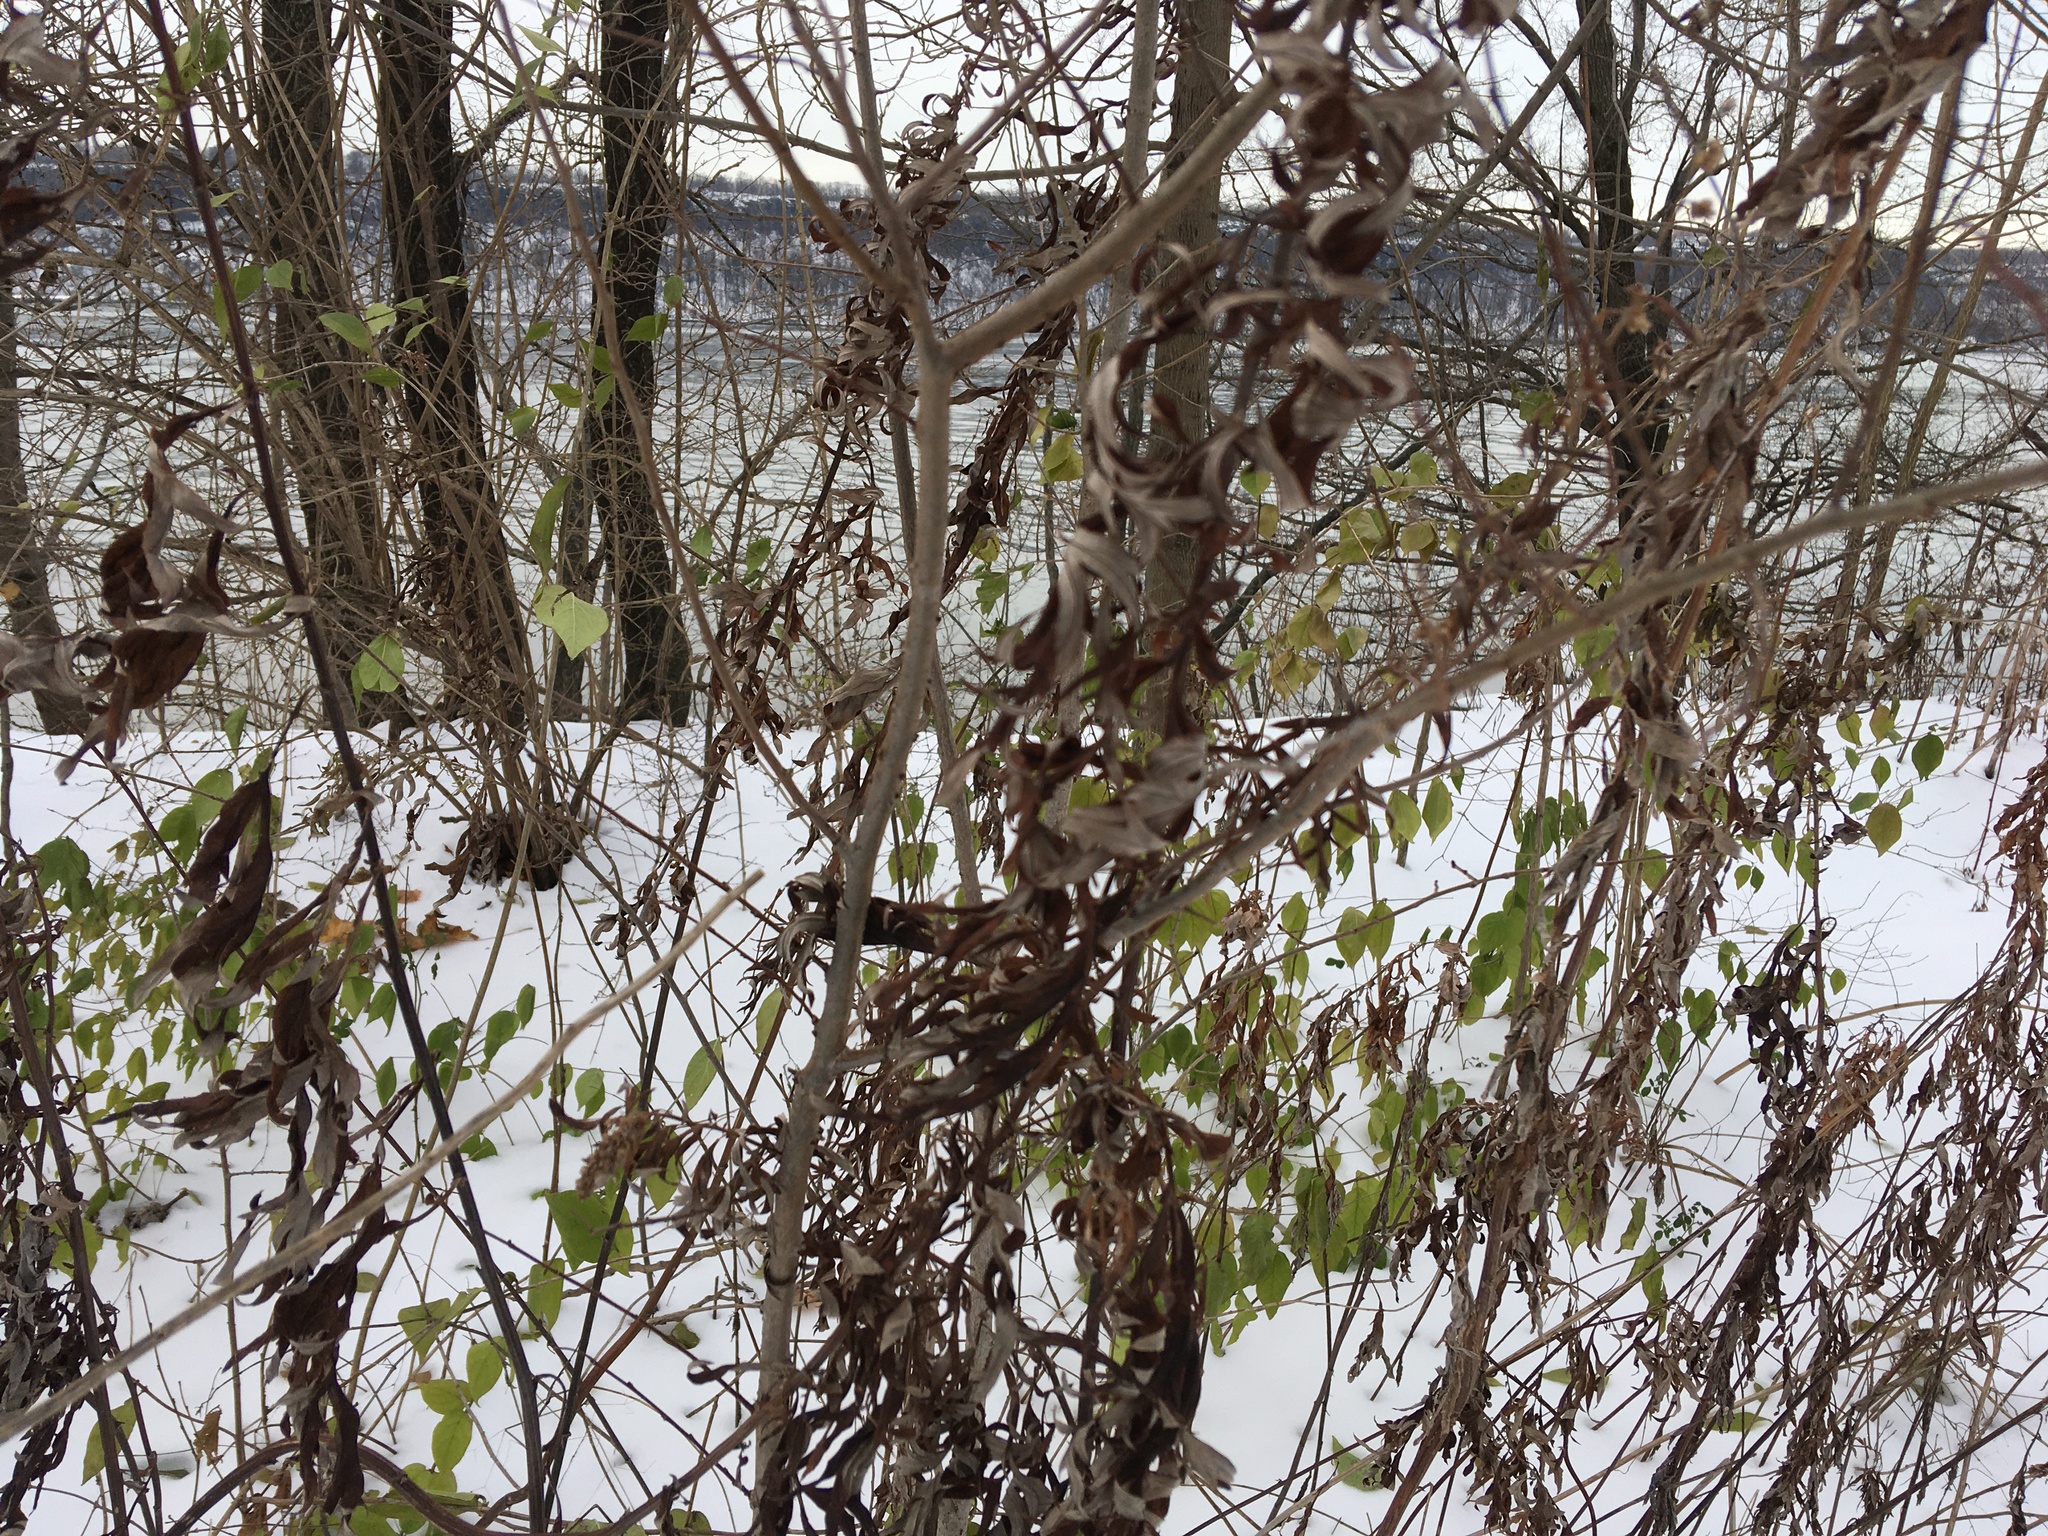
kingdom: Plantae
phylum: Tracheophyta
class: Magnoliopsida
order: Asterales
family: Asteraceae
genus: Artemisia
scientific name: Artemisia vulgaris
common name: Mugwort
